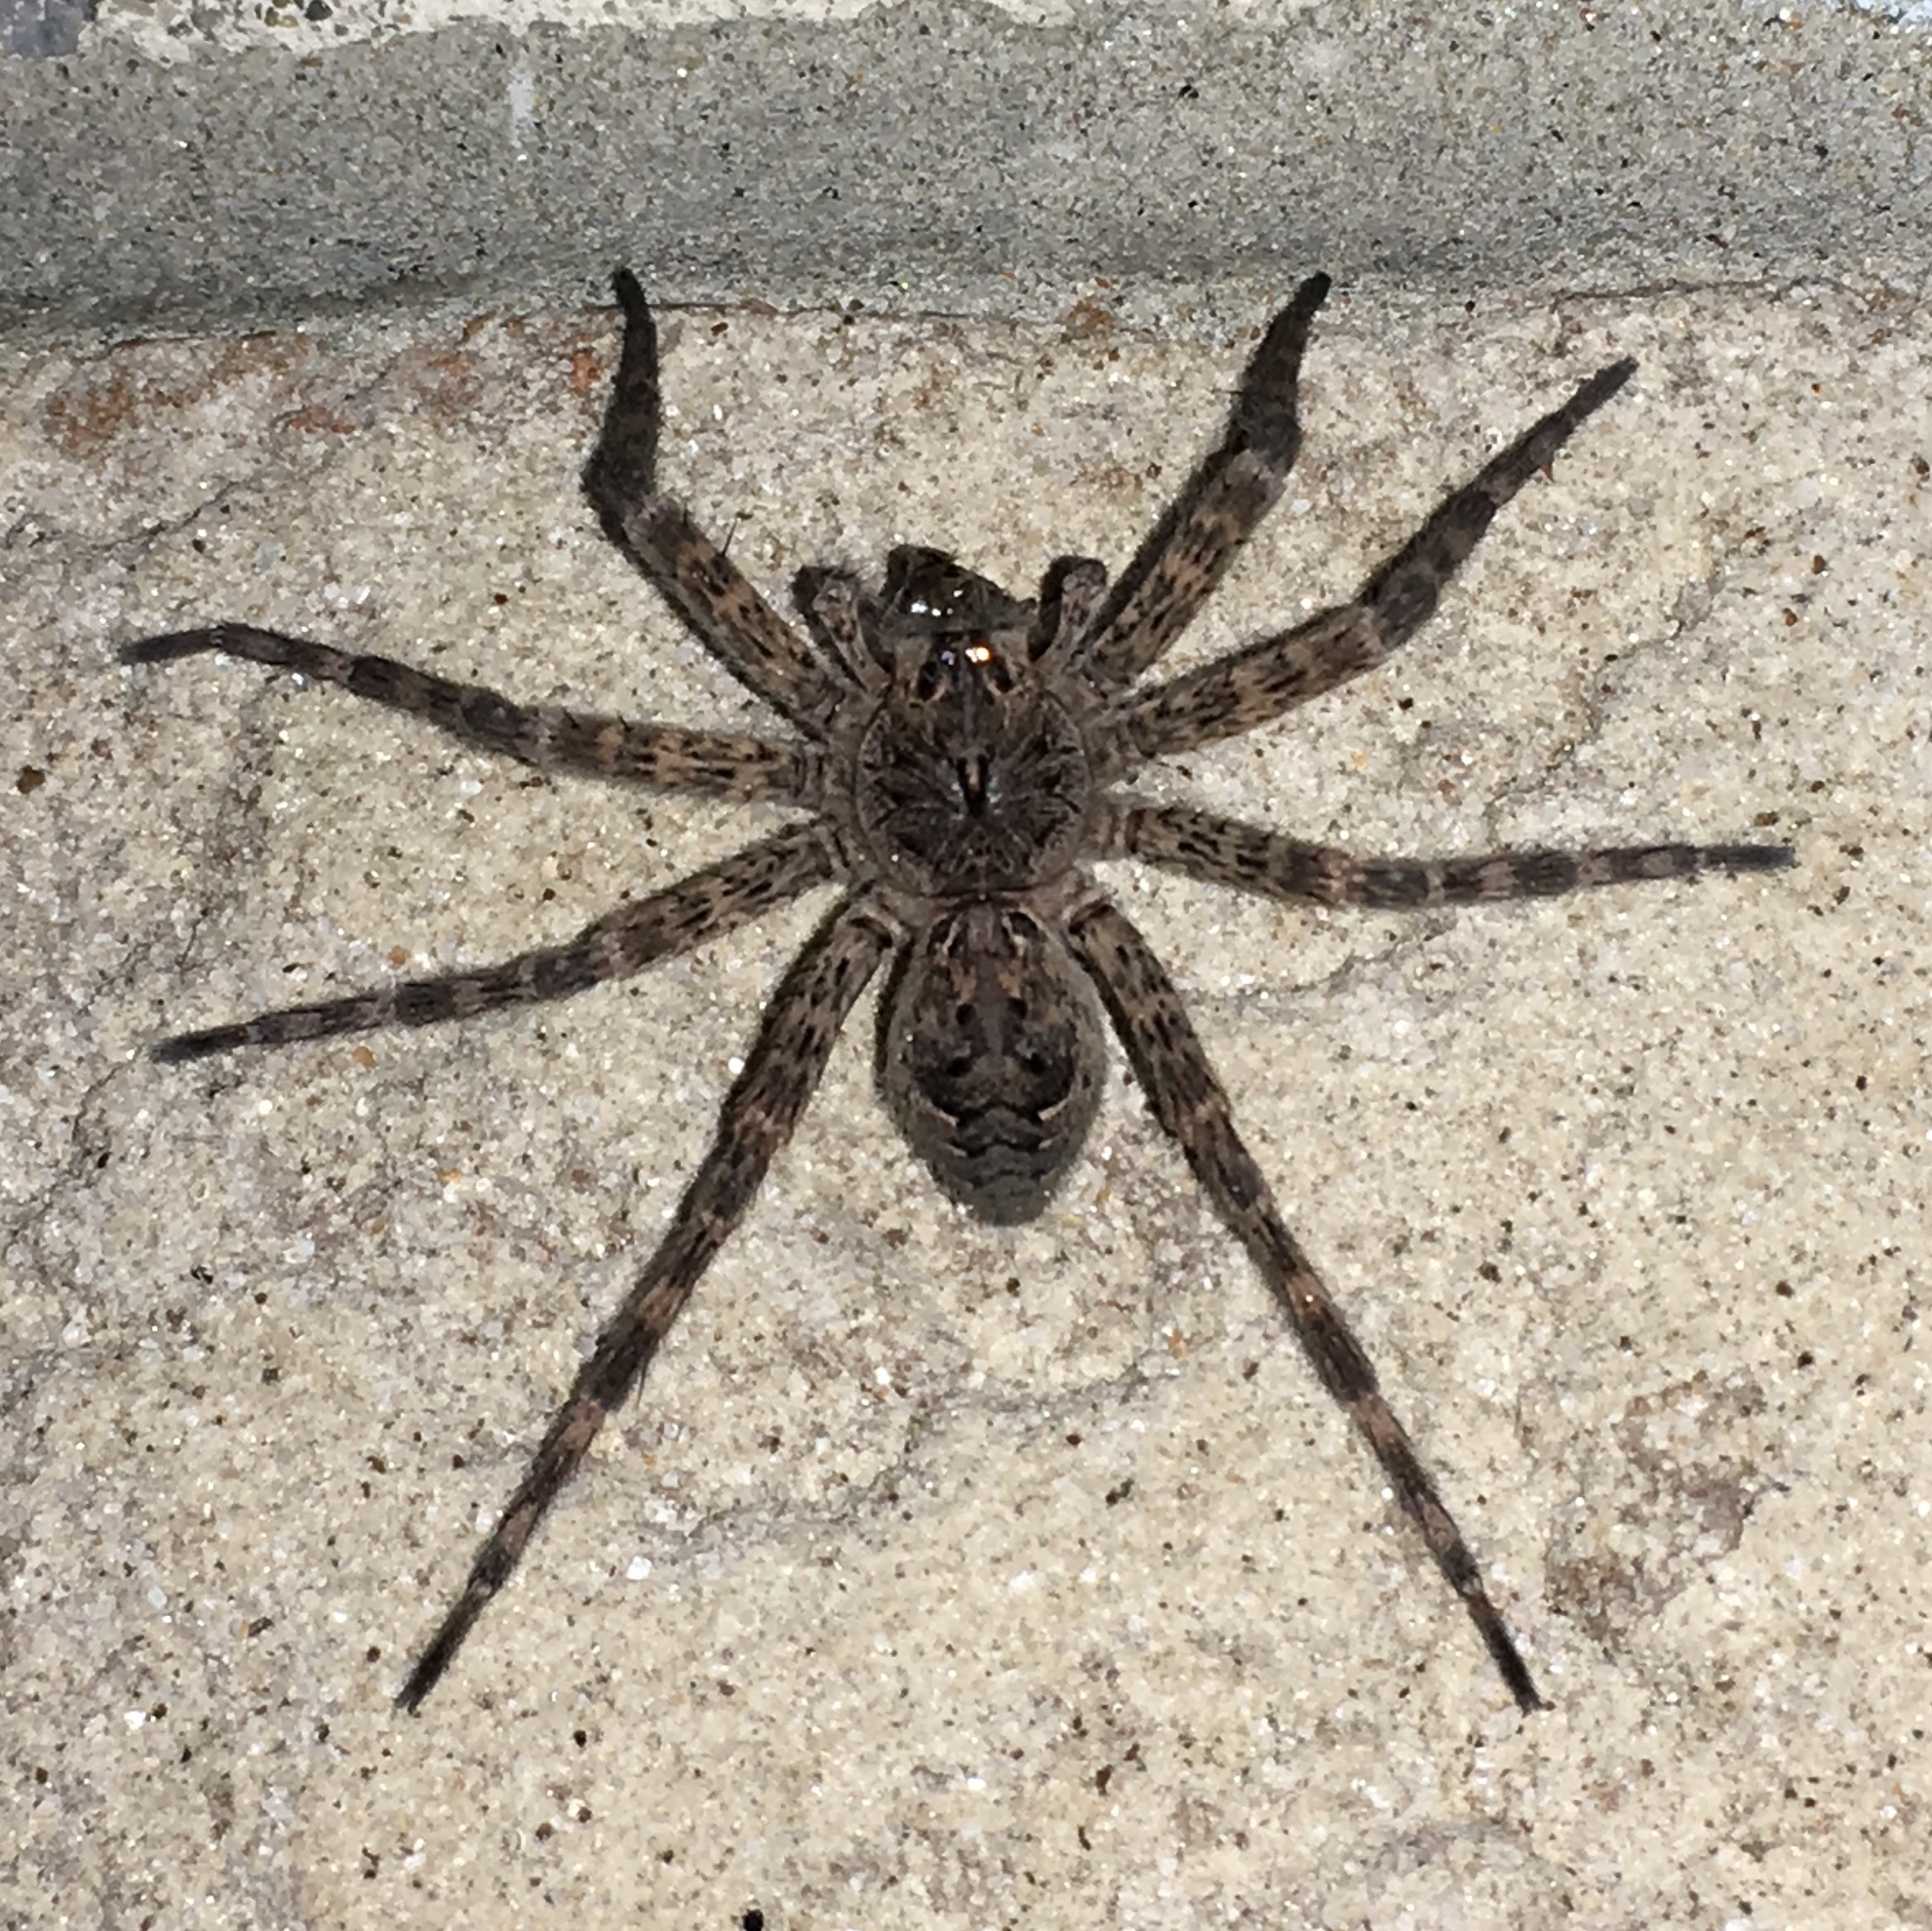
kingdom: Animalia
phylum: Arthropoda
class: Arachnida
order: Araneae
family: Pisauridae
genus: Dolomedes
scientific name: Dolomedes tenebrosus
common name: Dark fishing spider
